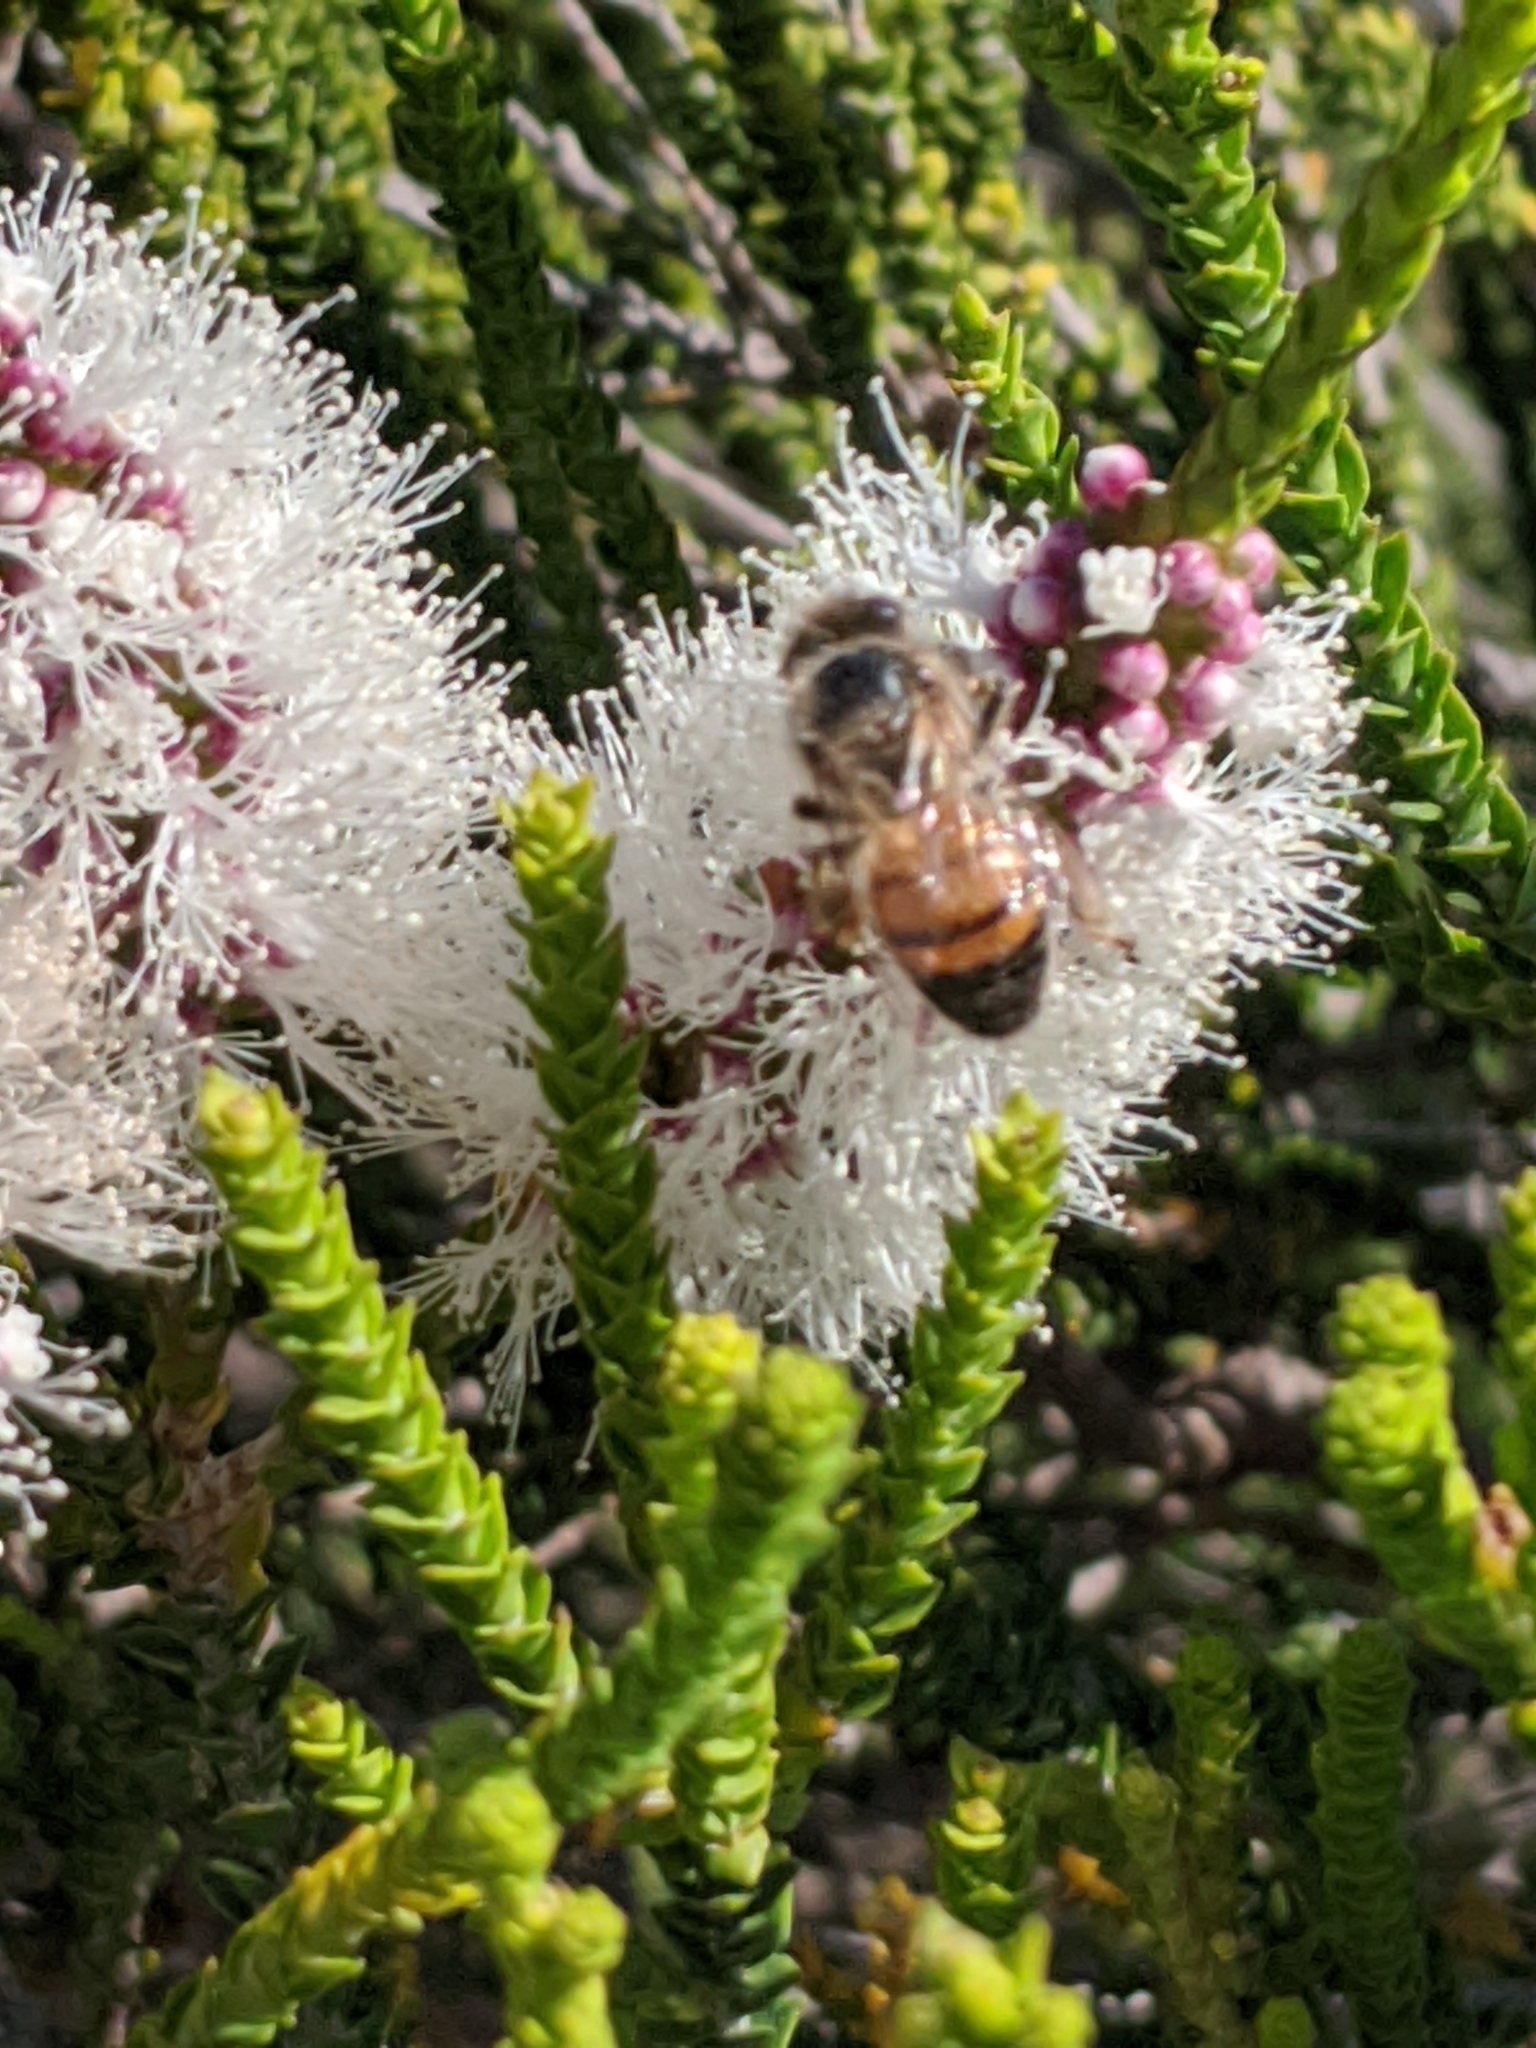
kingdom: Animalia
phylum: Arthropoda
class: Insecta
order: Hymenoptera
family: Apidae
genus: Apis
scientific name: Apis mellifera
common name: Honey bee
